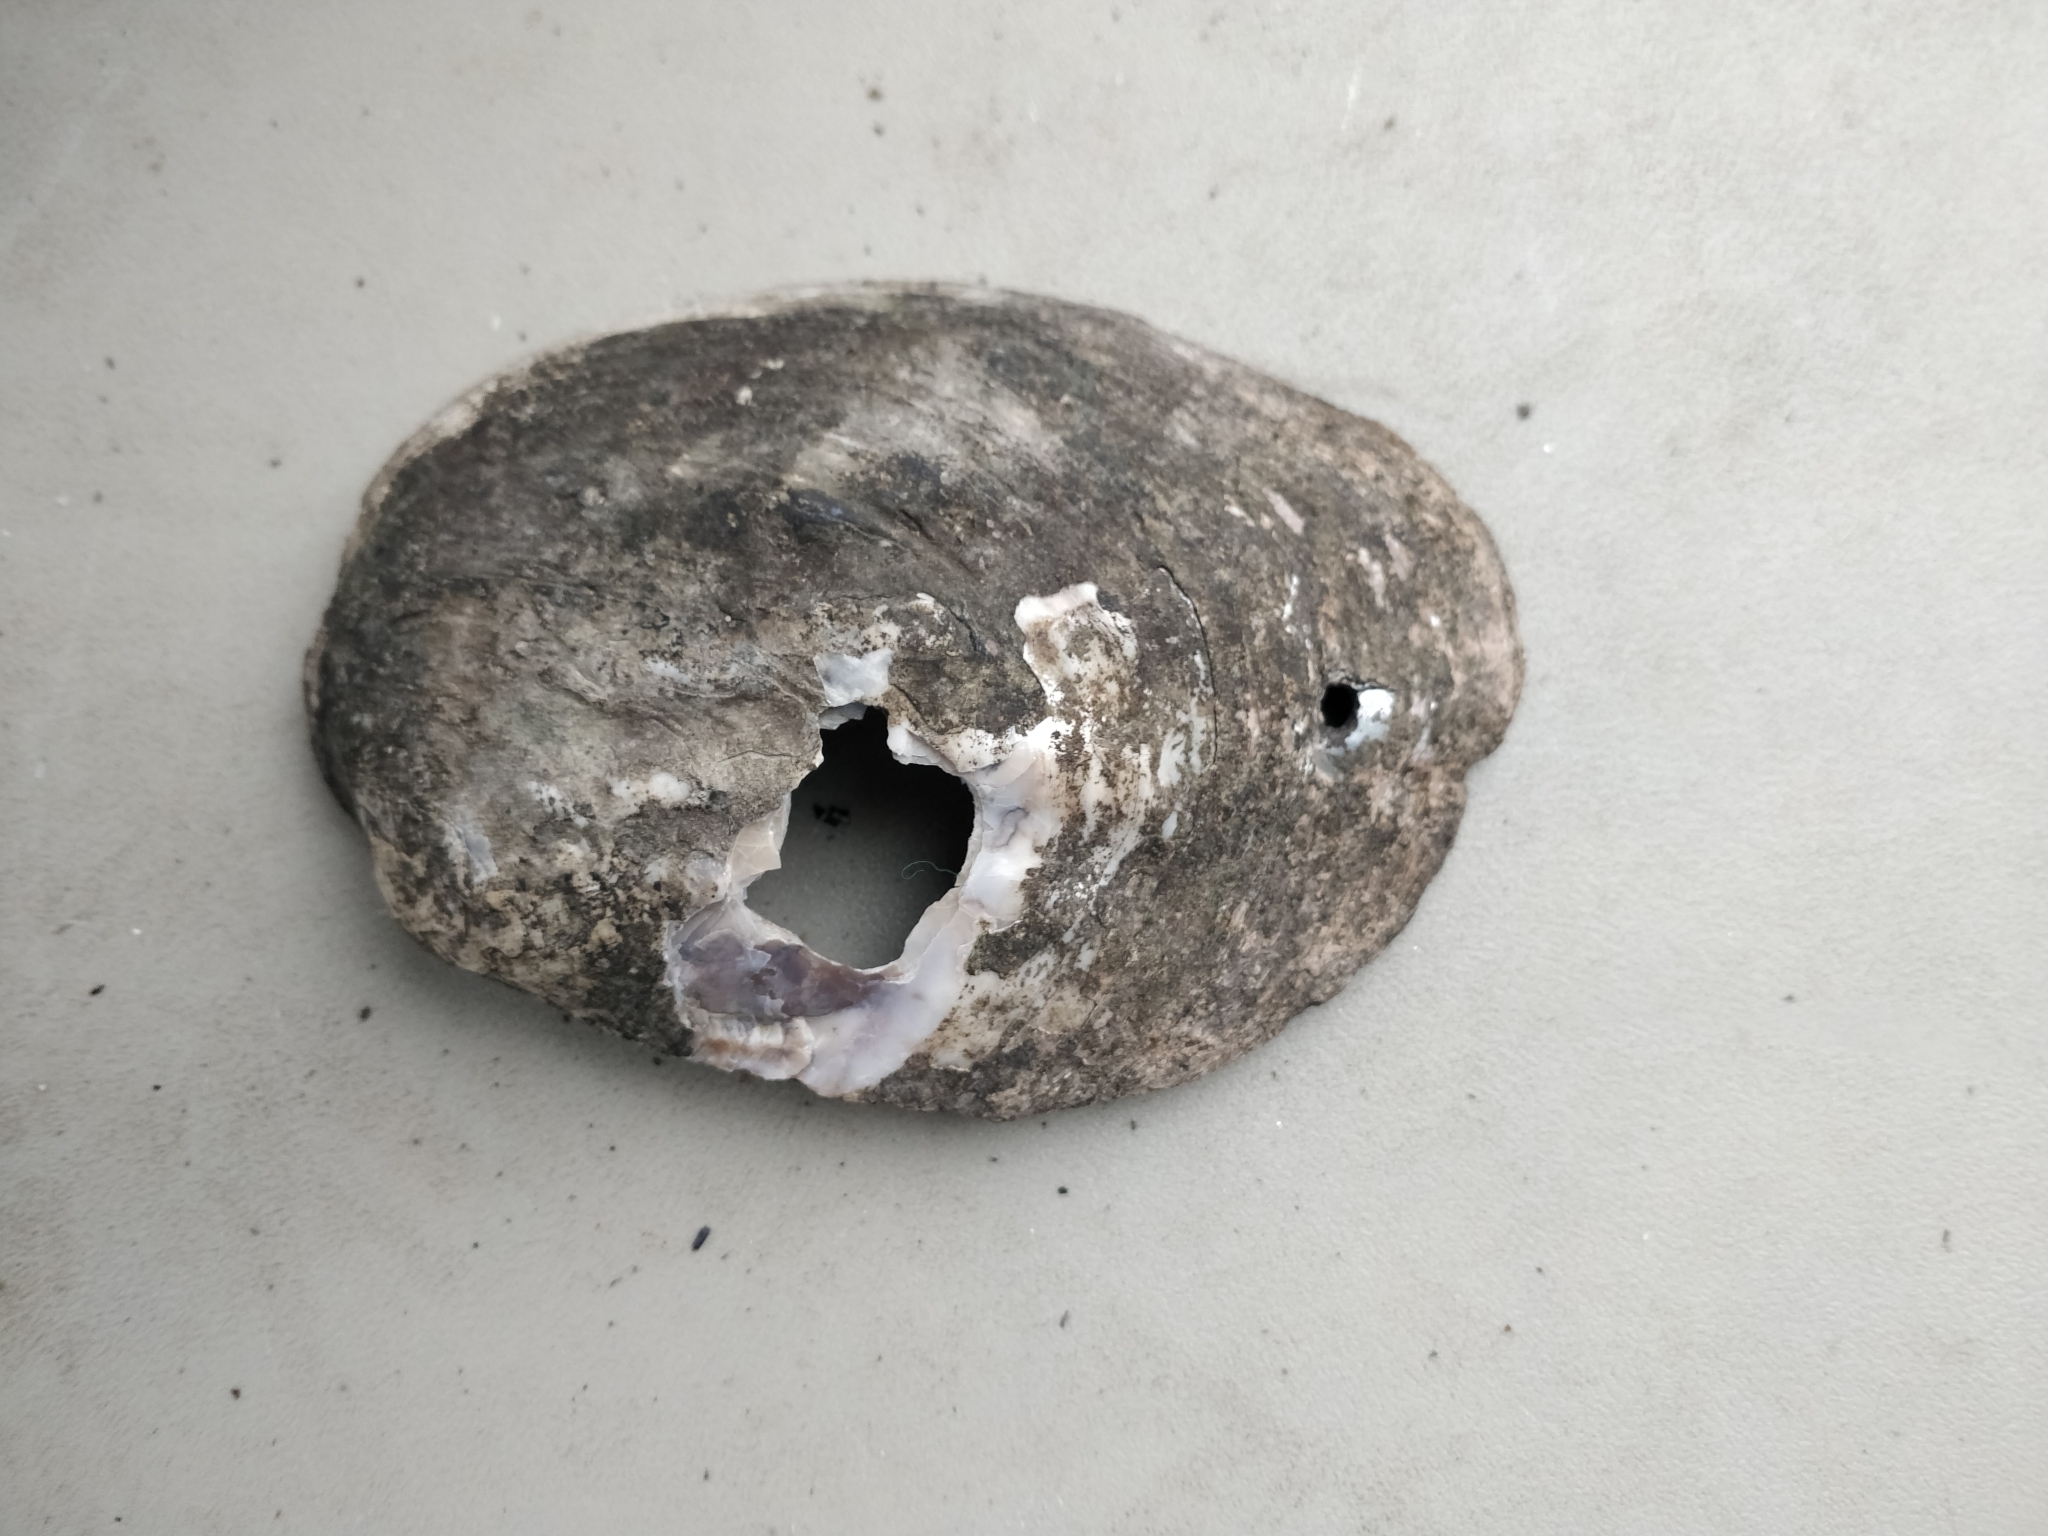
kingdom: Animalia
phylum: Mollusca
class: Bivalvia
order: Unionida
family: Unionidae
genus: Amblema
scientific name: Amblema plicata
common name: Threeridge
